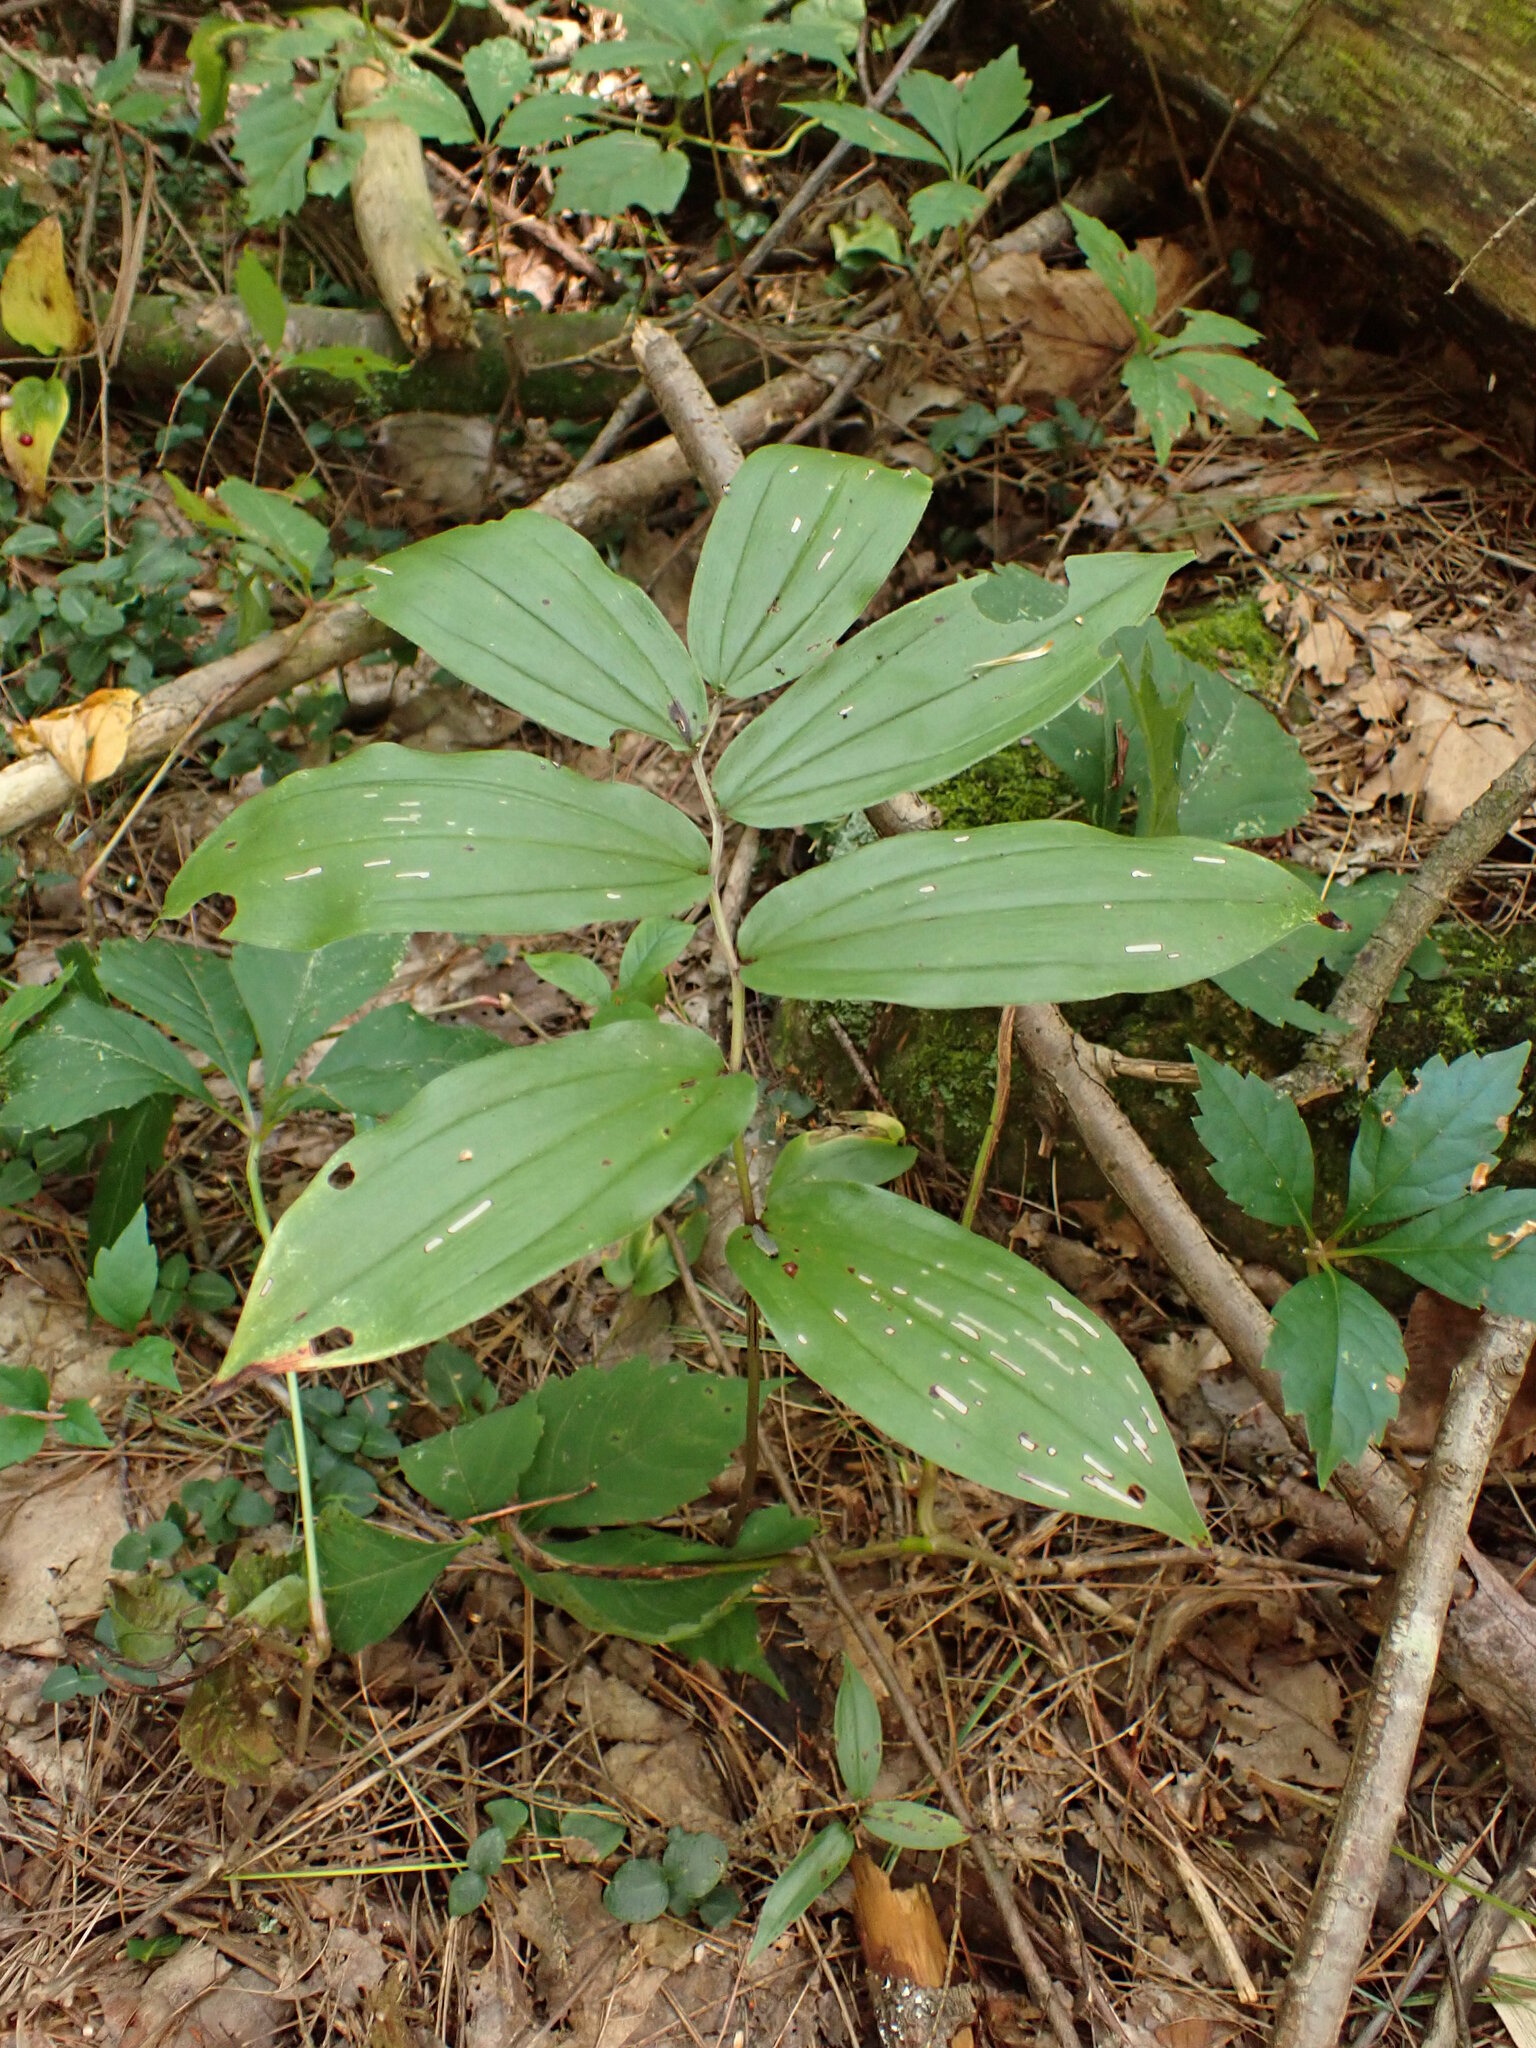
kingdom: Plantae
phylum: Tracheophyta
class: Liliopsida
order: Asparagales
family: Asparagaceae
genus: Maianthemum
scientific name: Maianthemum racemosum
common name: False spikenard
